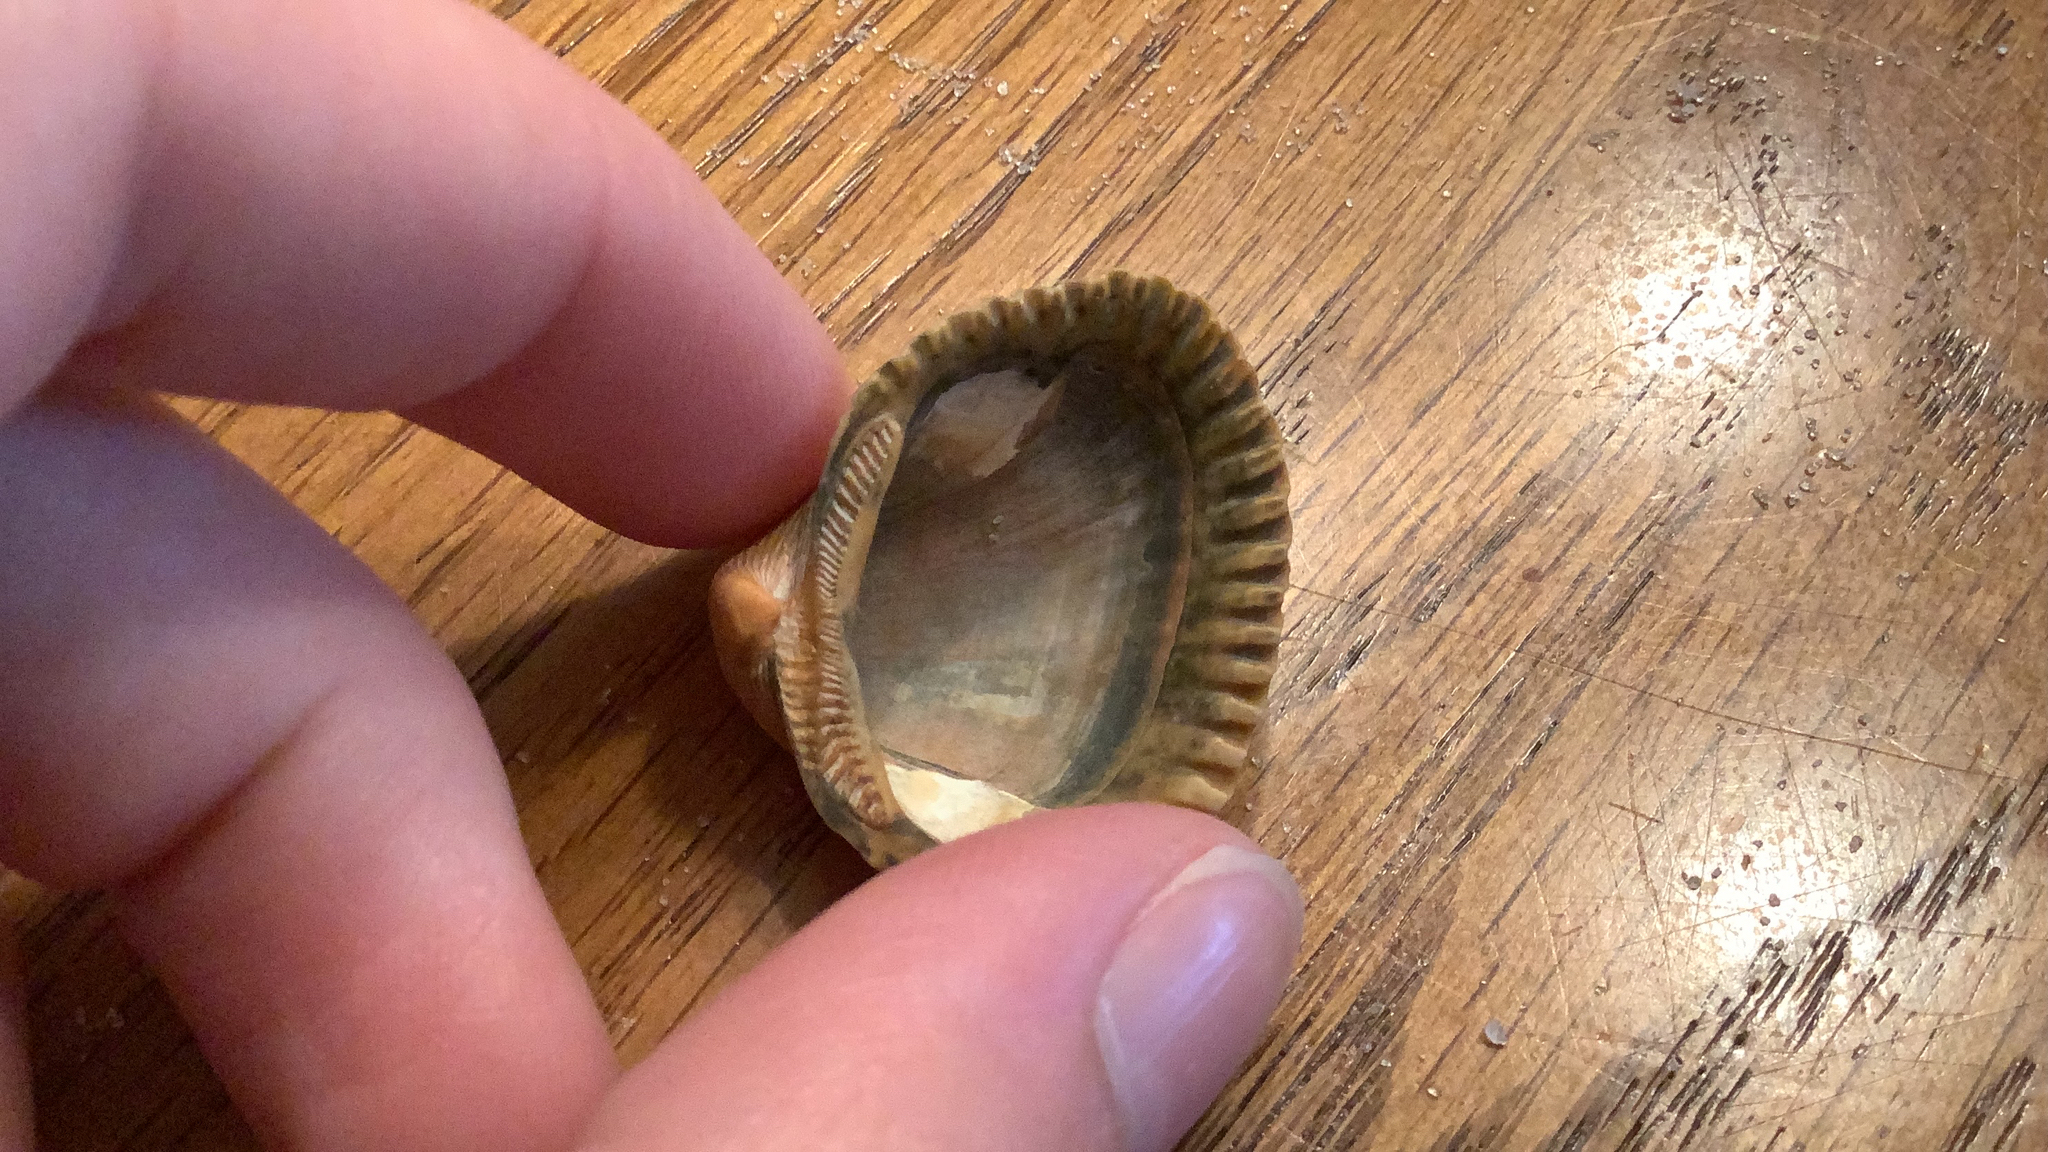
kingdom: Animalia
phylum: Mollusca
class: Bivalvia
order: Arcida
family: Noetiidae
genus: Noetia
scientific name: Noetia ponderosa
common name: Ponderous ark
